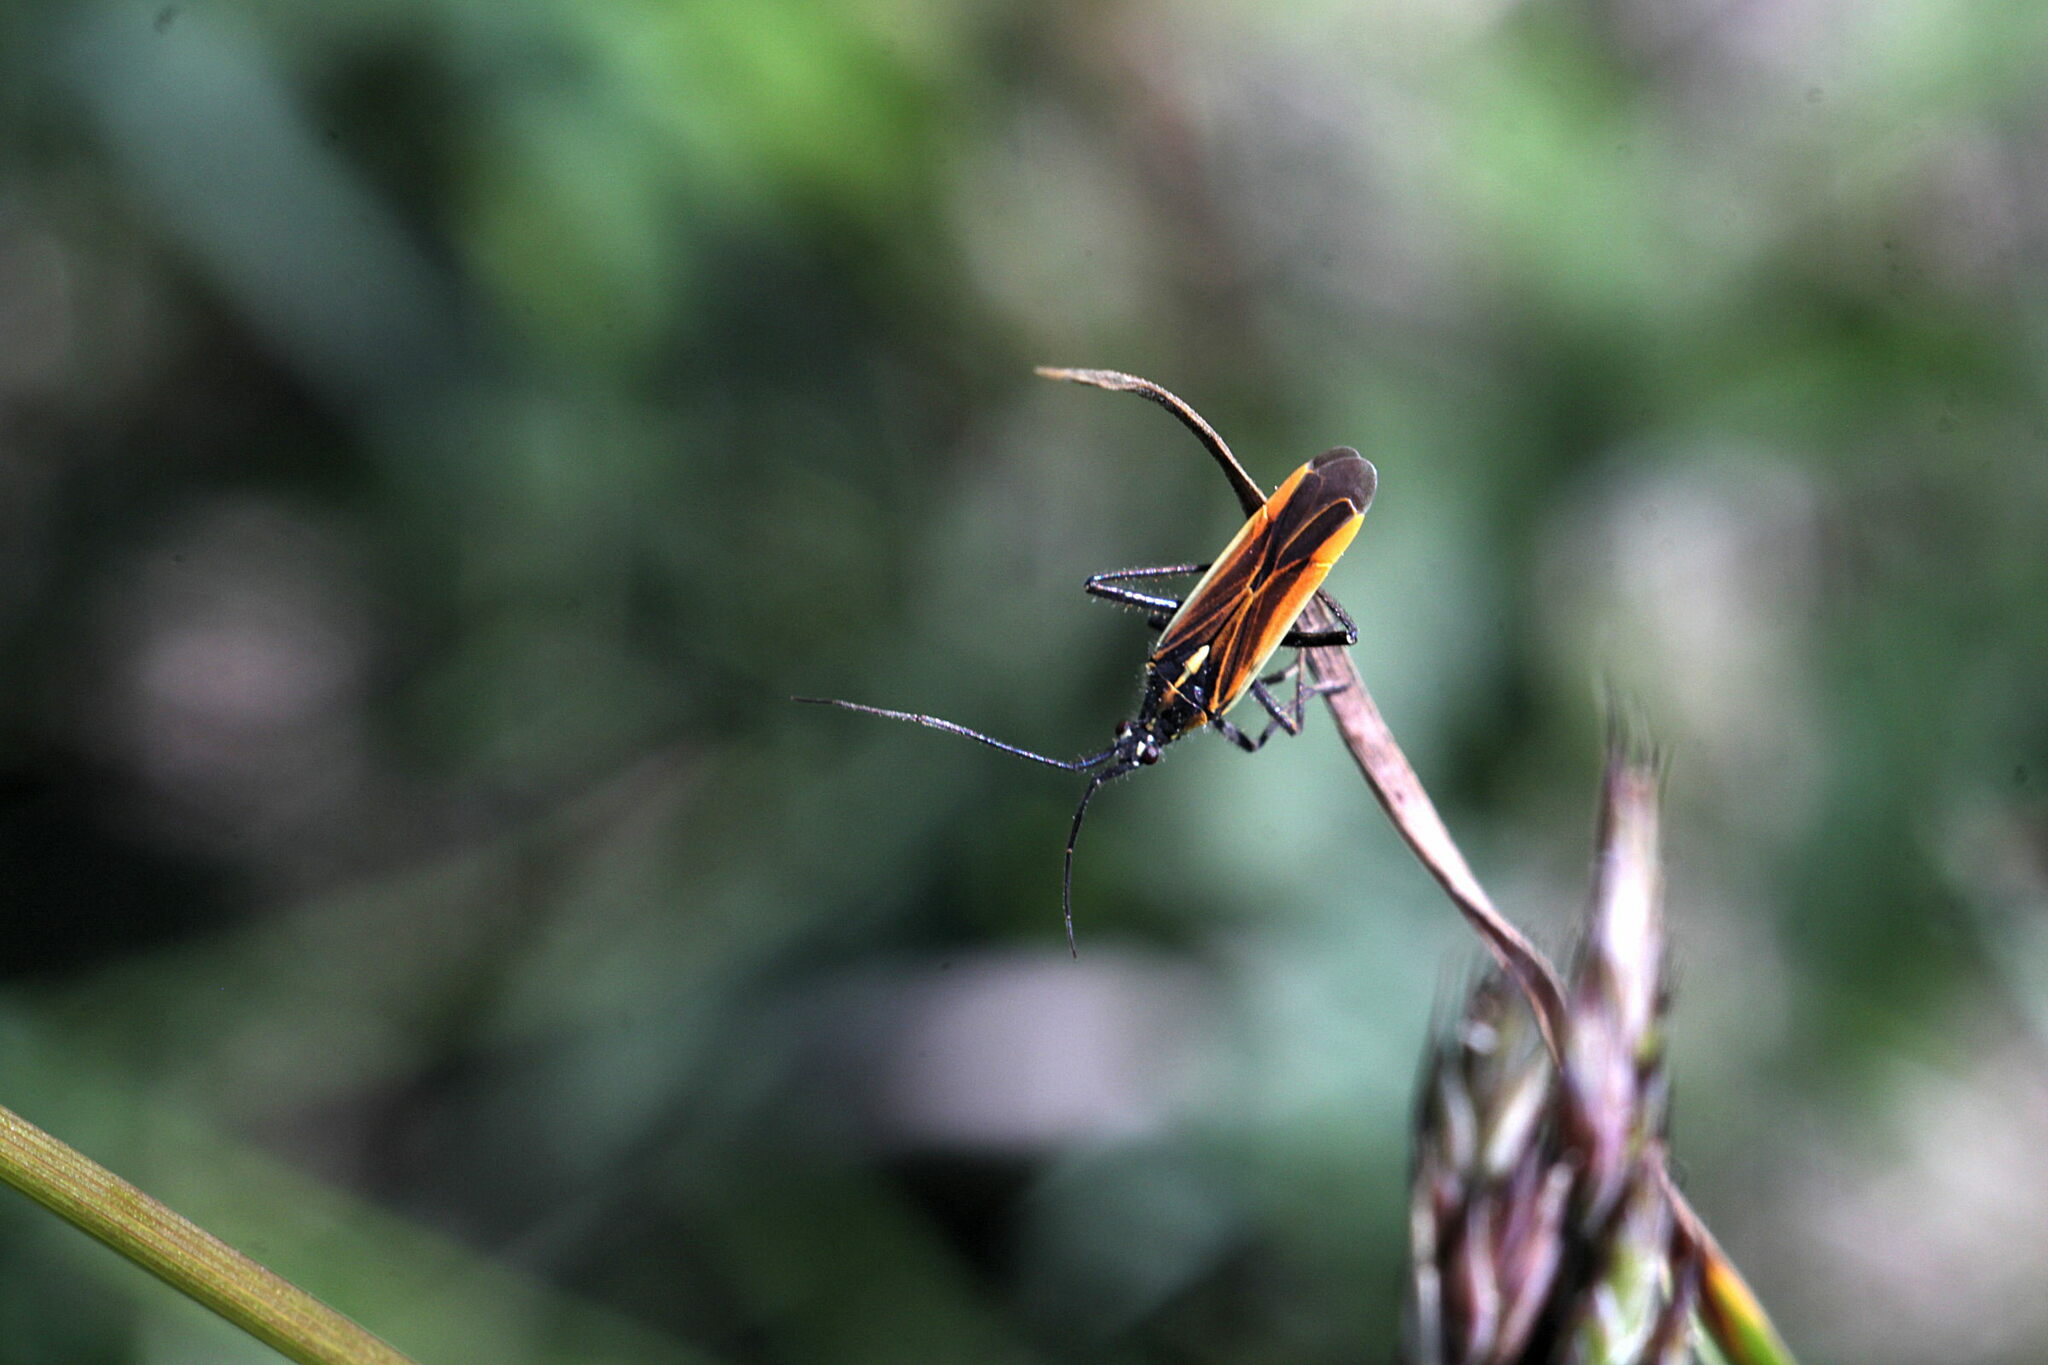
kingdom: Animalia
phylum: Arthropoda
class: Insecta
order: Hemiptera
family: Miridae
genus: Leptopterna
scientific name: Leptopterna dolabrata
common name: Meadow plant bug
